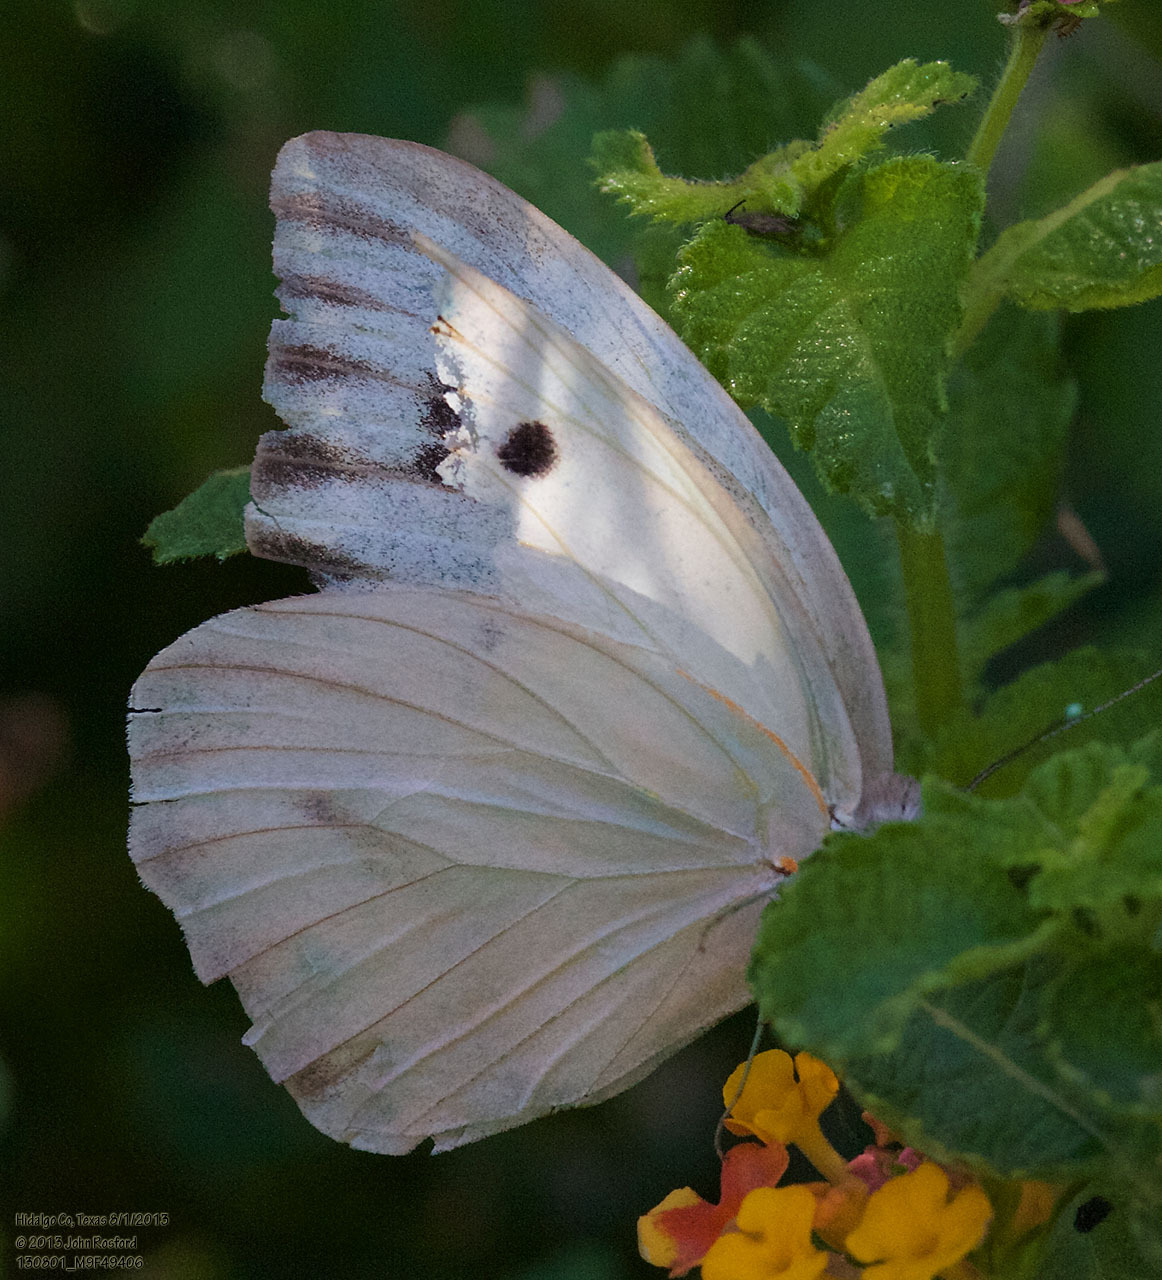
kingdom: Animalia
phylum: Arthropoda
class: Insecta
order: Lepidoptera
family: Pieridae
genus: Ganyra
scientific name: Ganyra josephina
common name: Giant white
